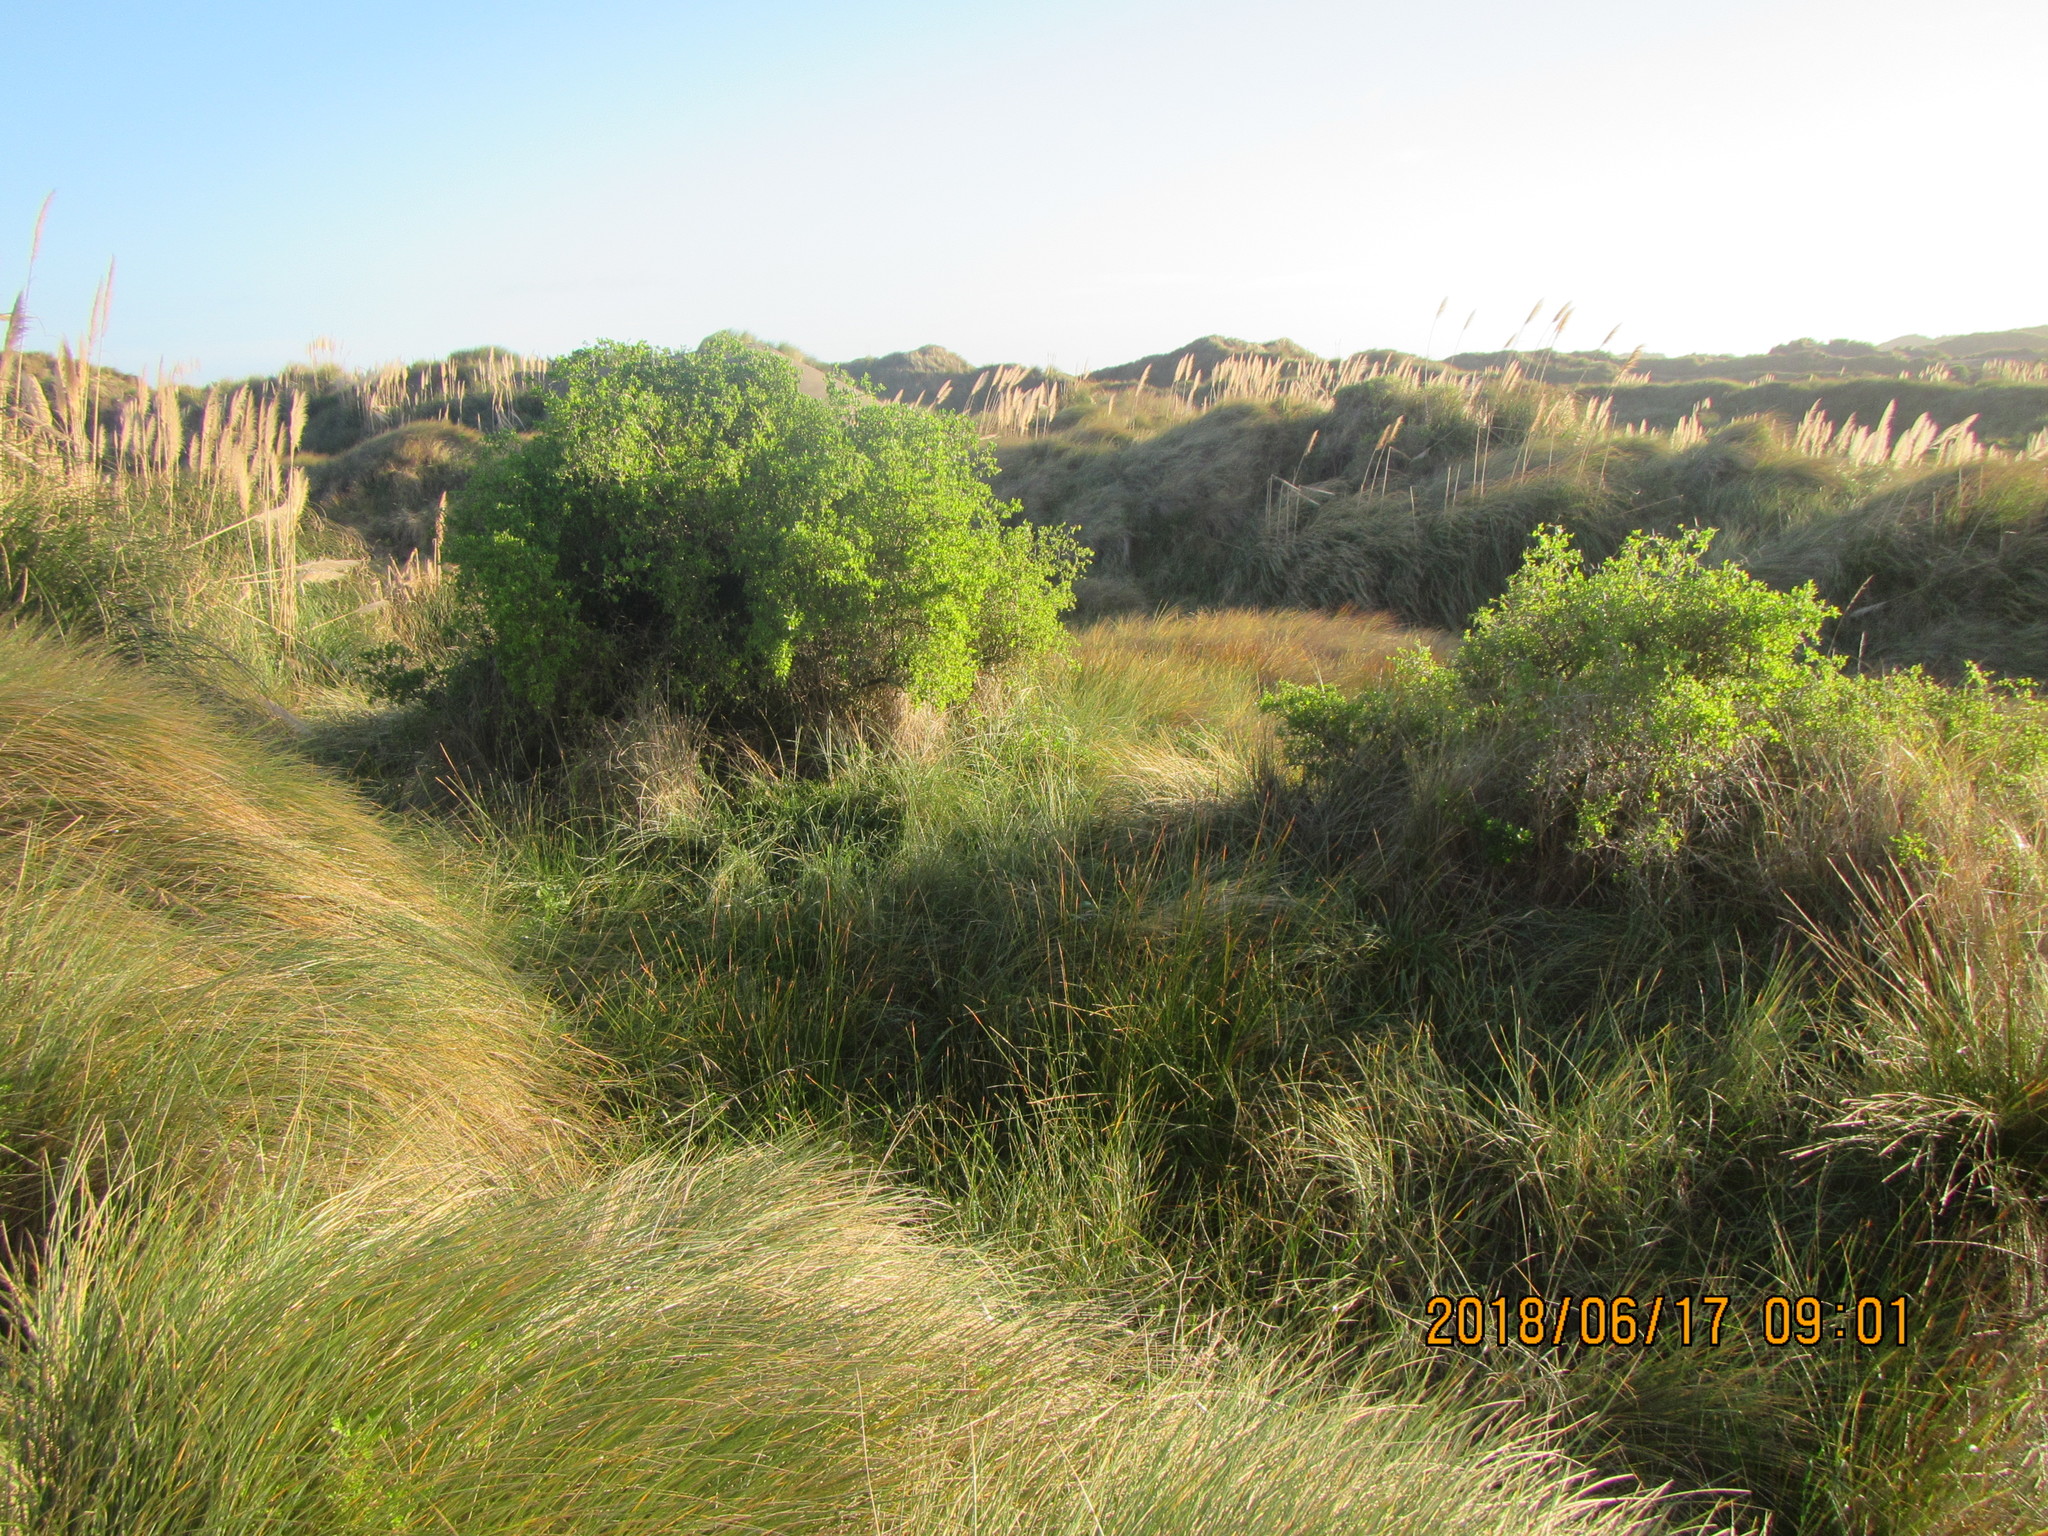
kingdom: Plantae
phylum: Tracheophyta
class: Magnoliopsida
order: Solanales
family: Solanaceae
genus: Lycium
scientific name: Lycium ferocissimum
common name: African boxthorn
